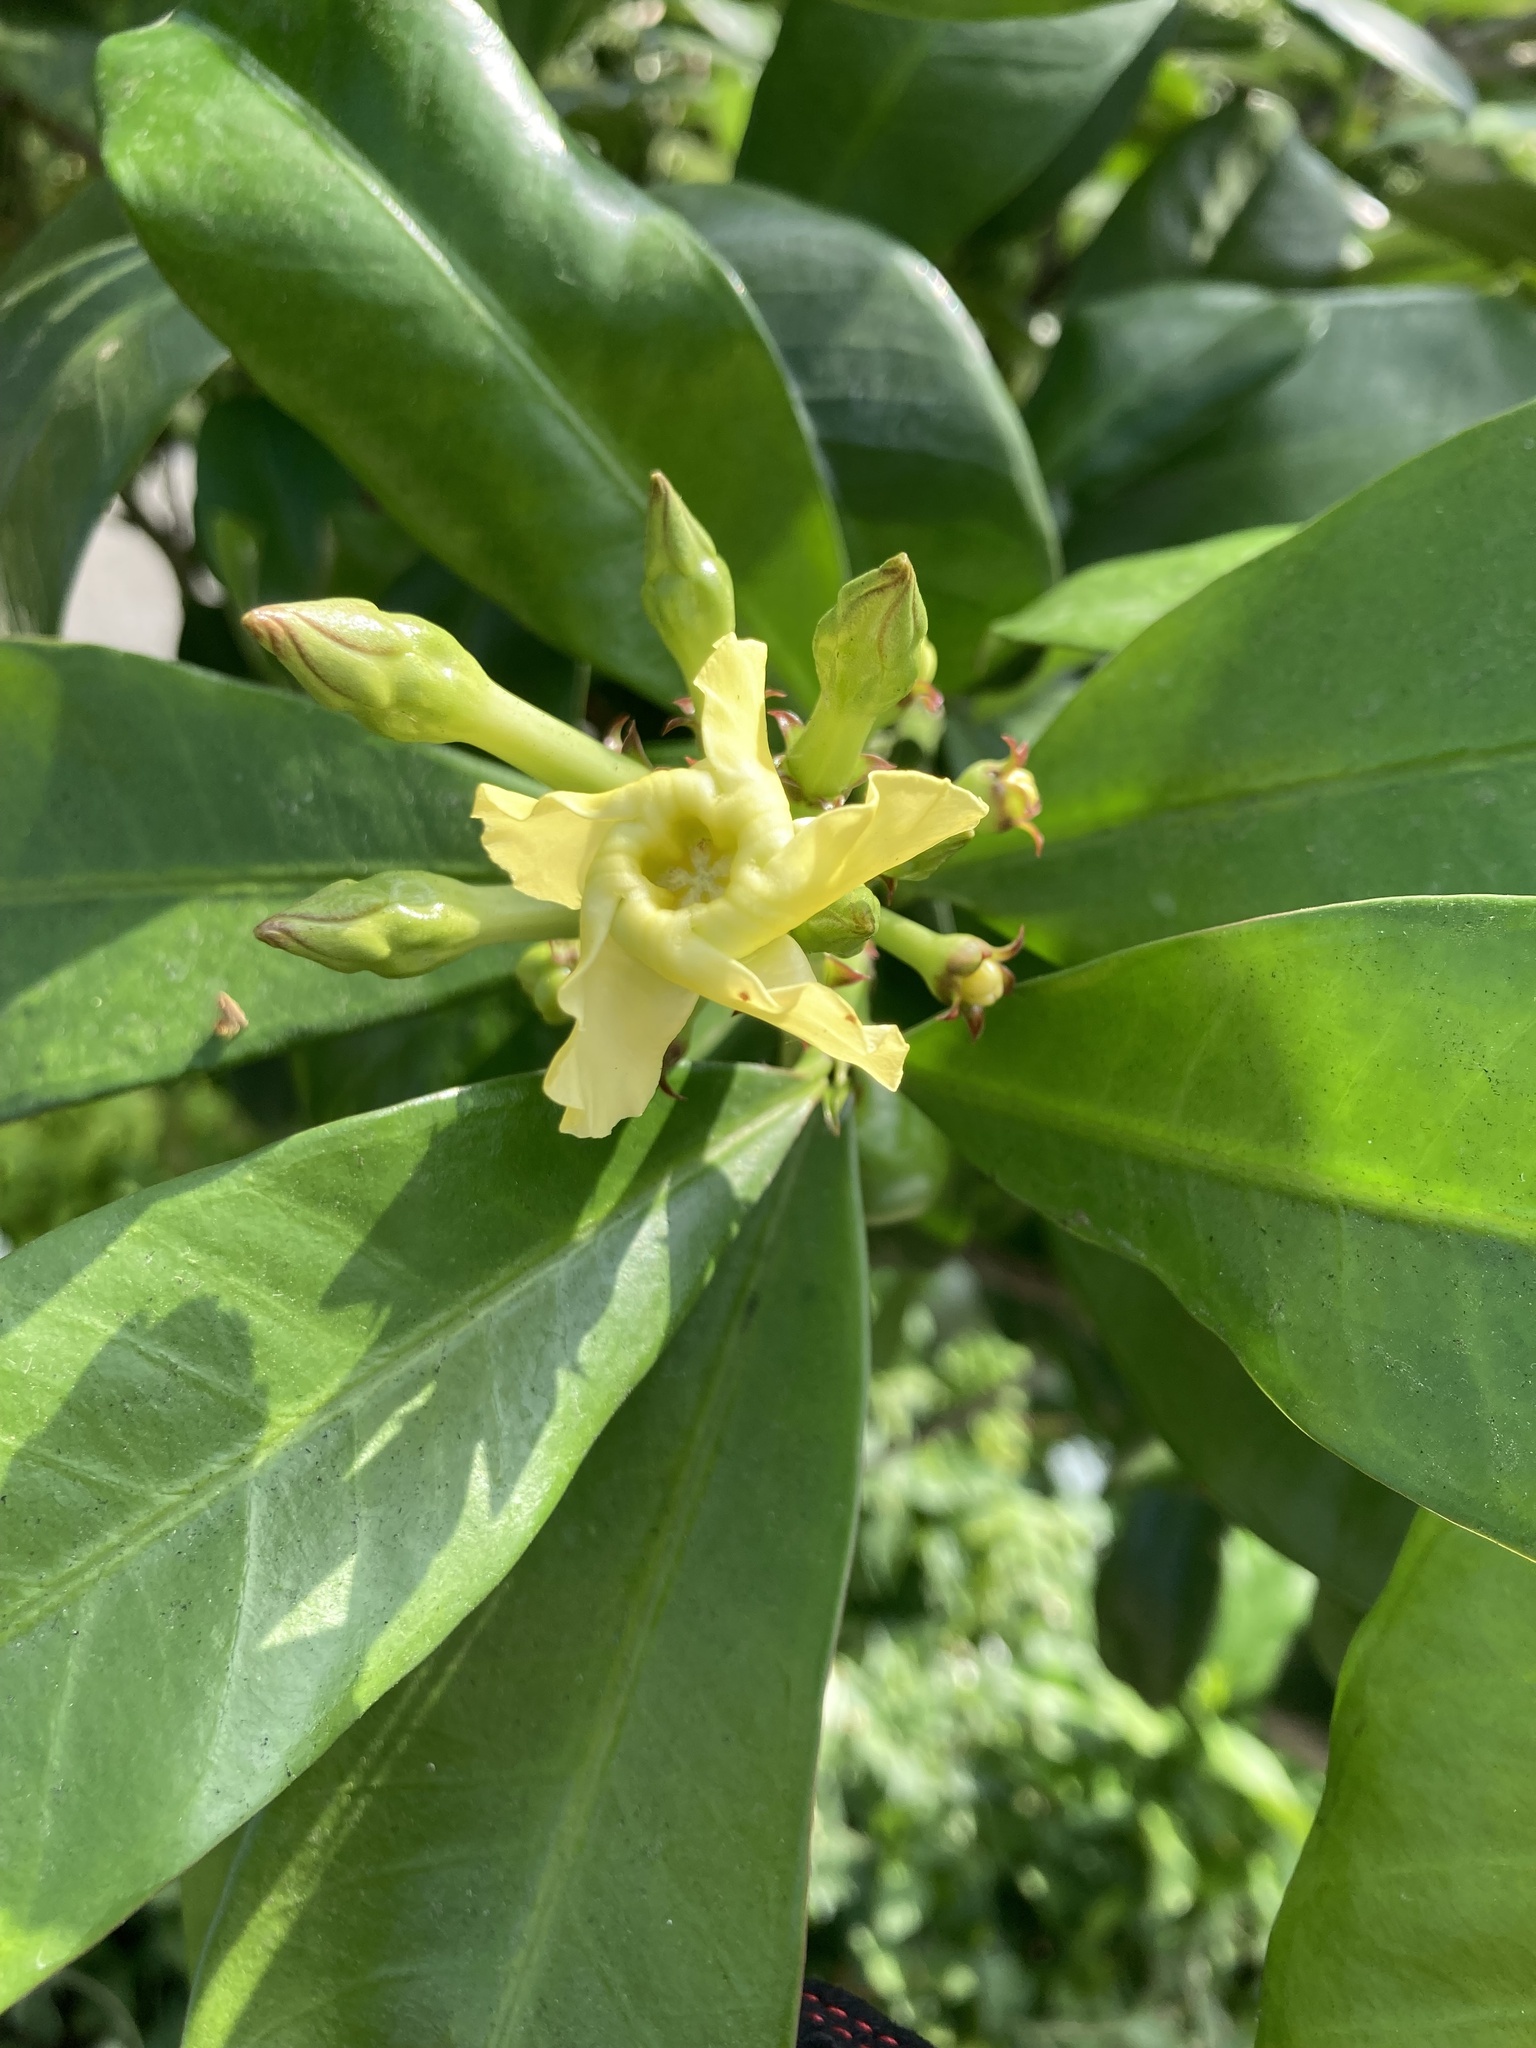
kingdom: Plantae
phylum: Tracheophyta
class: Magnoliopsida
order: Gentianales
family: Apocynaceae
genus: Thevetia
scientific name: Thevetia ahouai
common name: Broadleaf thevetia
